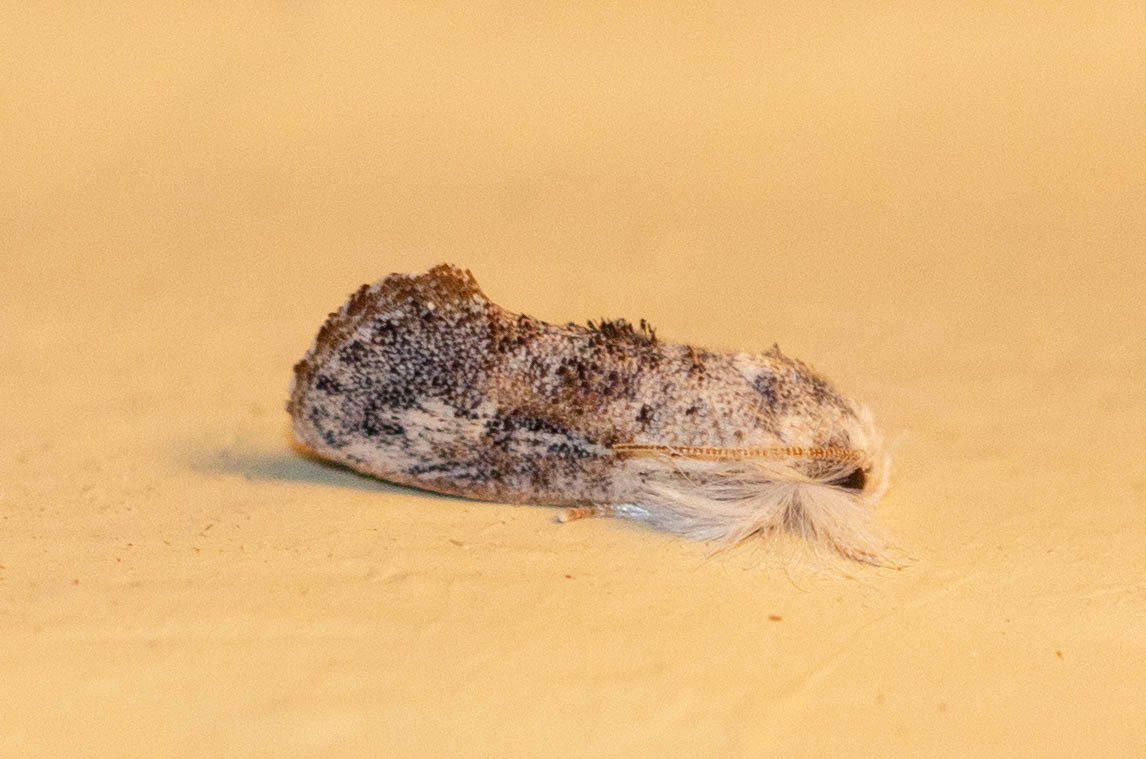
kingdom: Animalia
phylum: Arthropoda
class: Insecta
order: Lepidoptera
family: Tineidae
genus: Acrolophus
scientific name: Acrolophus mycetophagus
